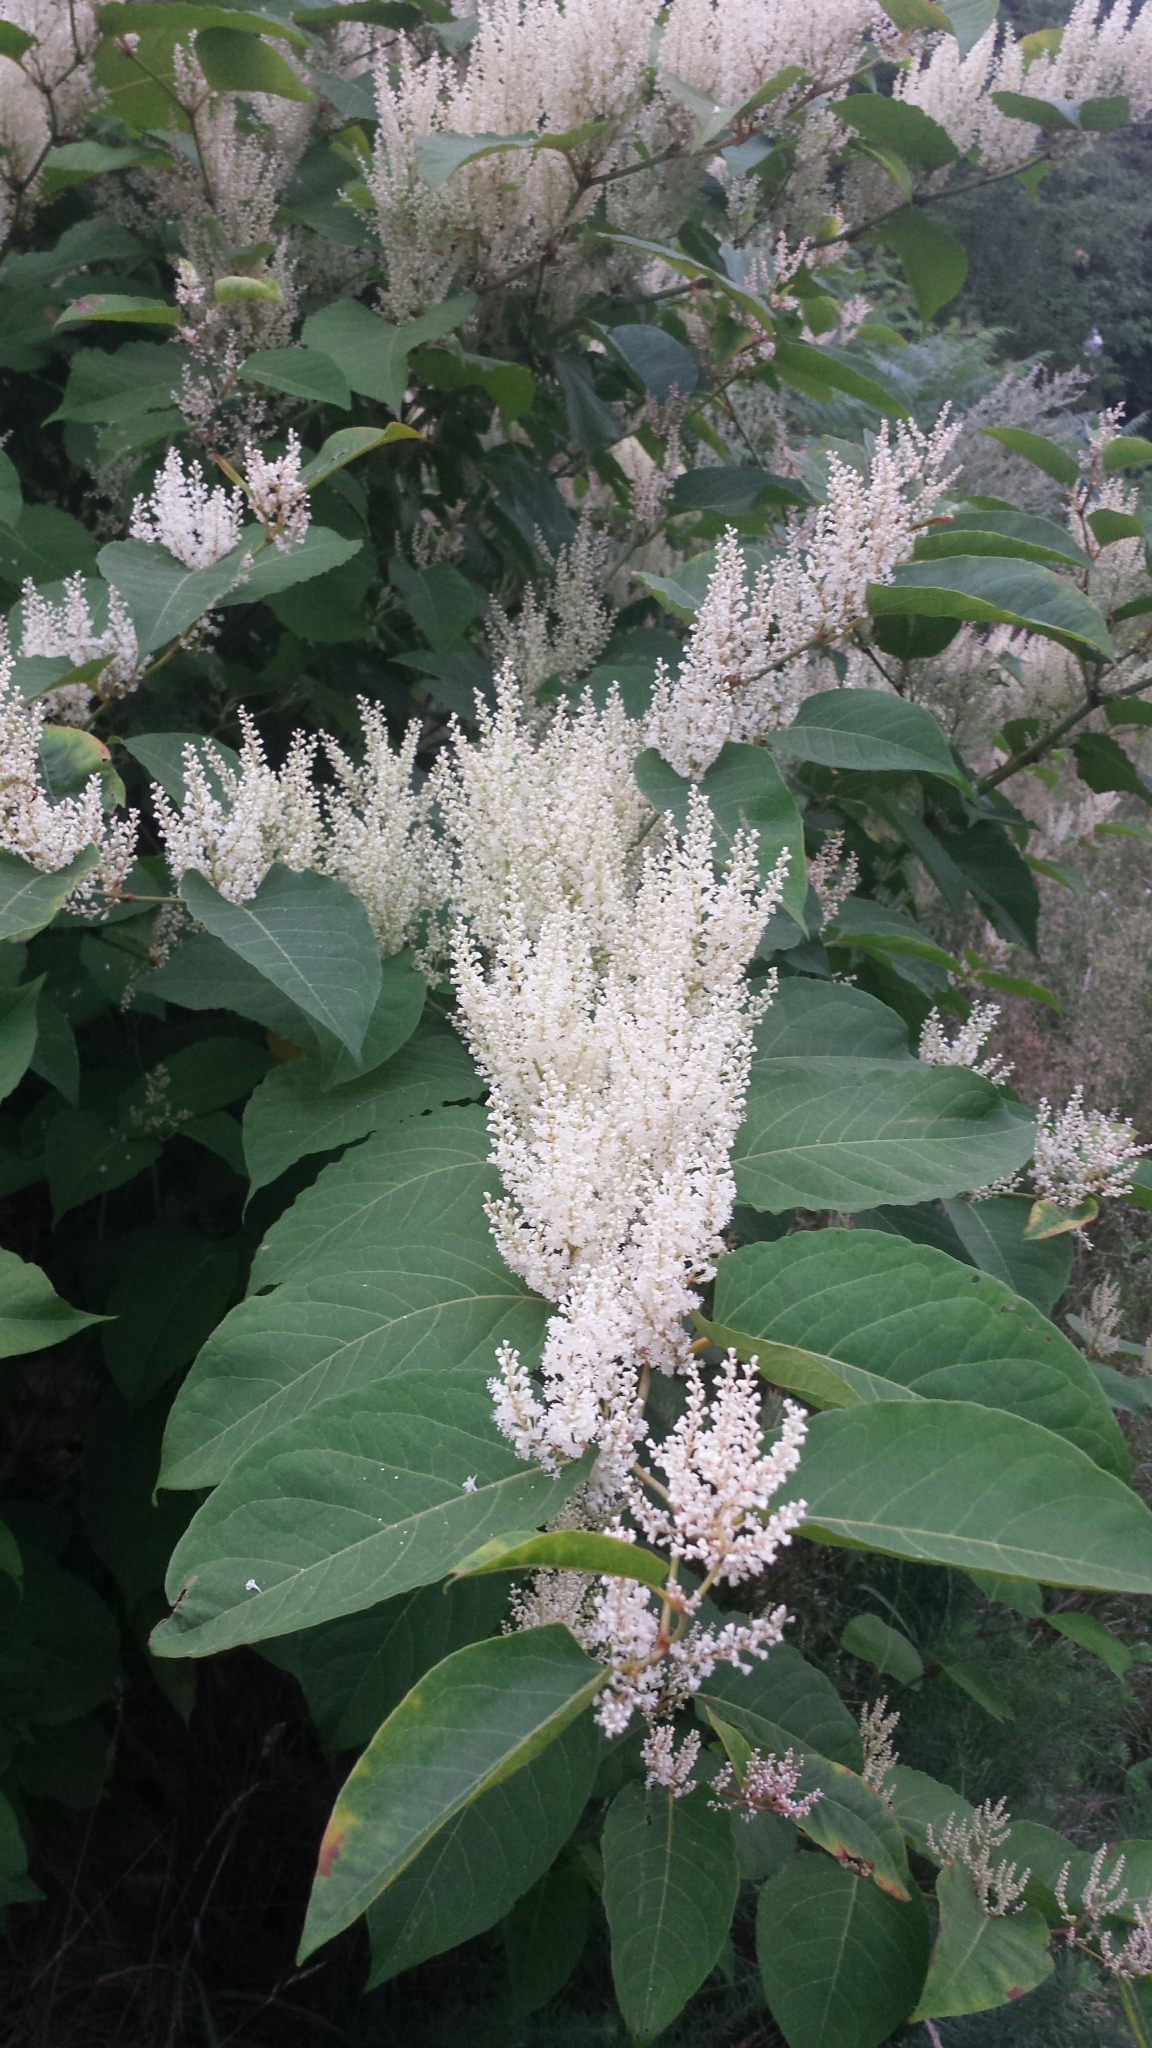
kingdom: Plantae
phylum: Tracheophyta
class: Magnoliopsida
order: Caryophyllales
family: Polygonaceae
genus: Reynoutria
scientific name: Reynoutria japonica
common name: Japanese knotweed
